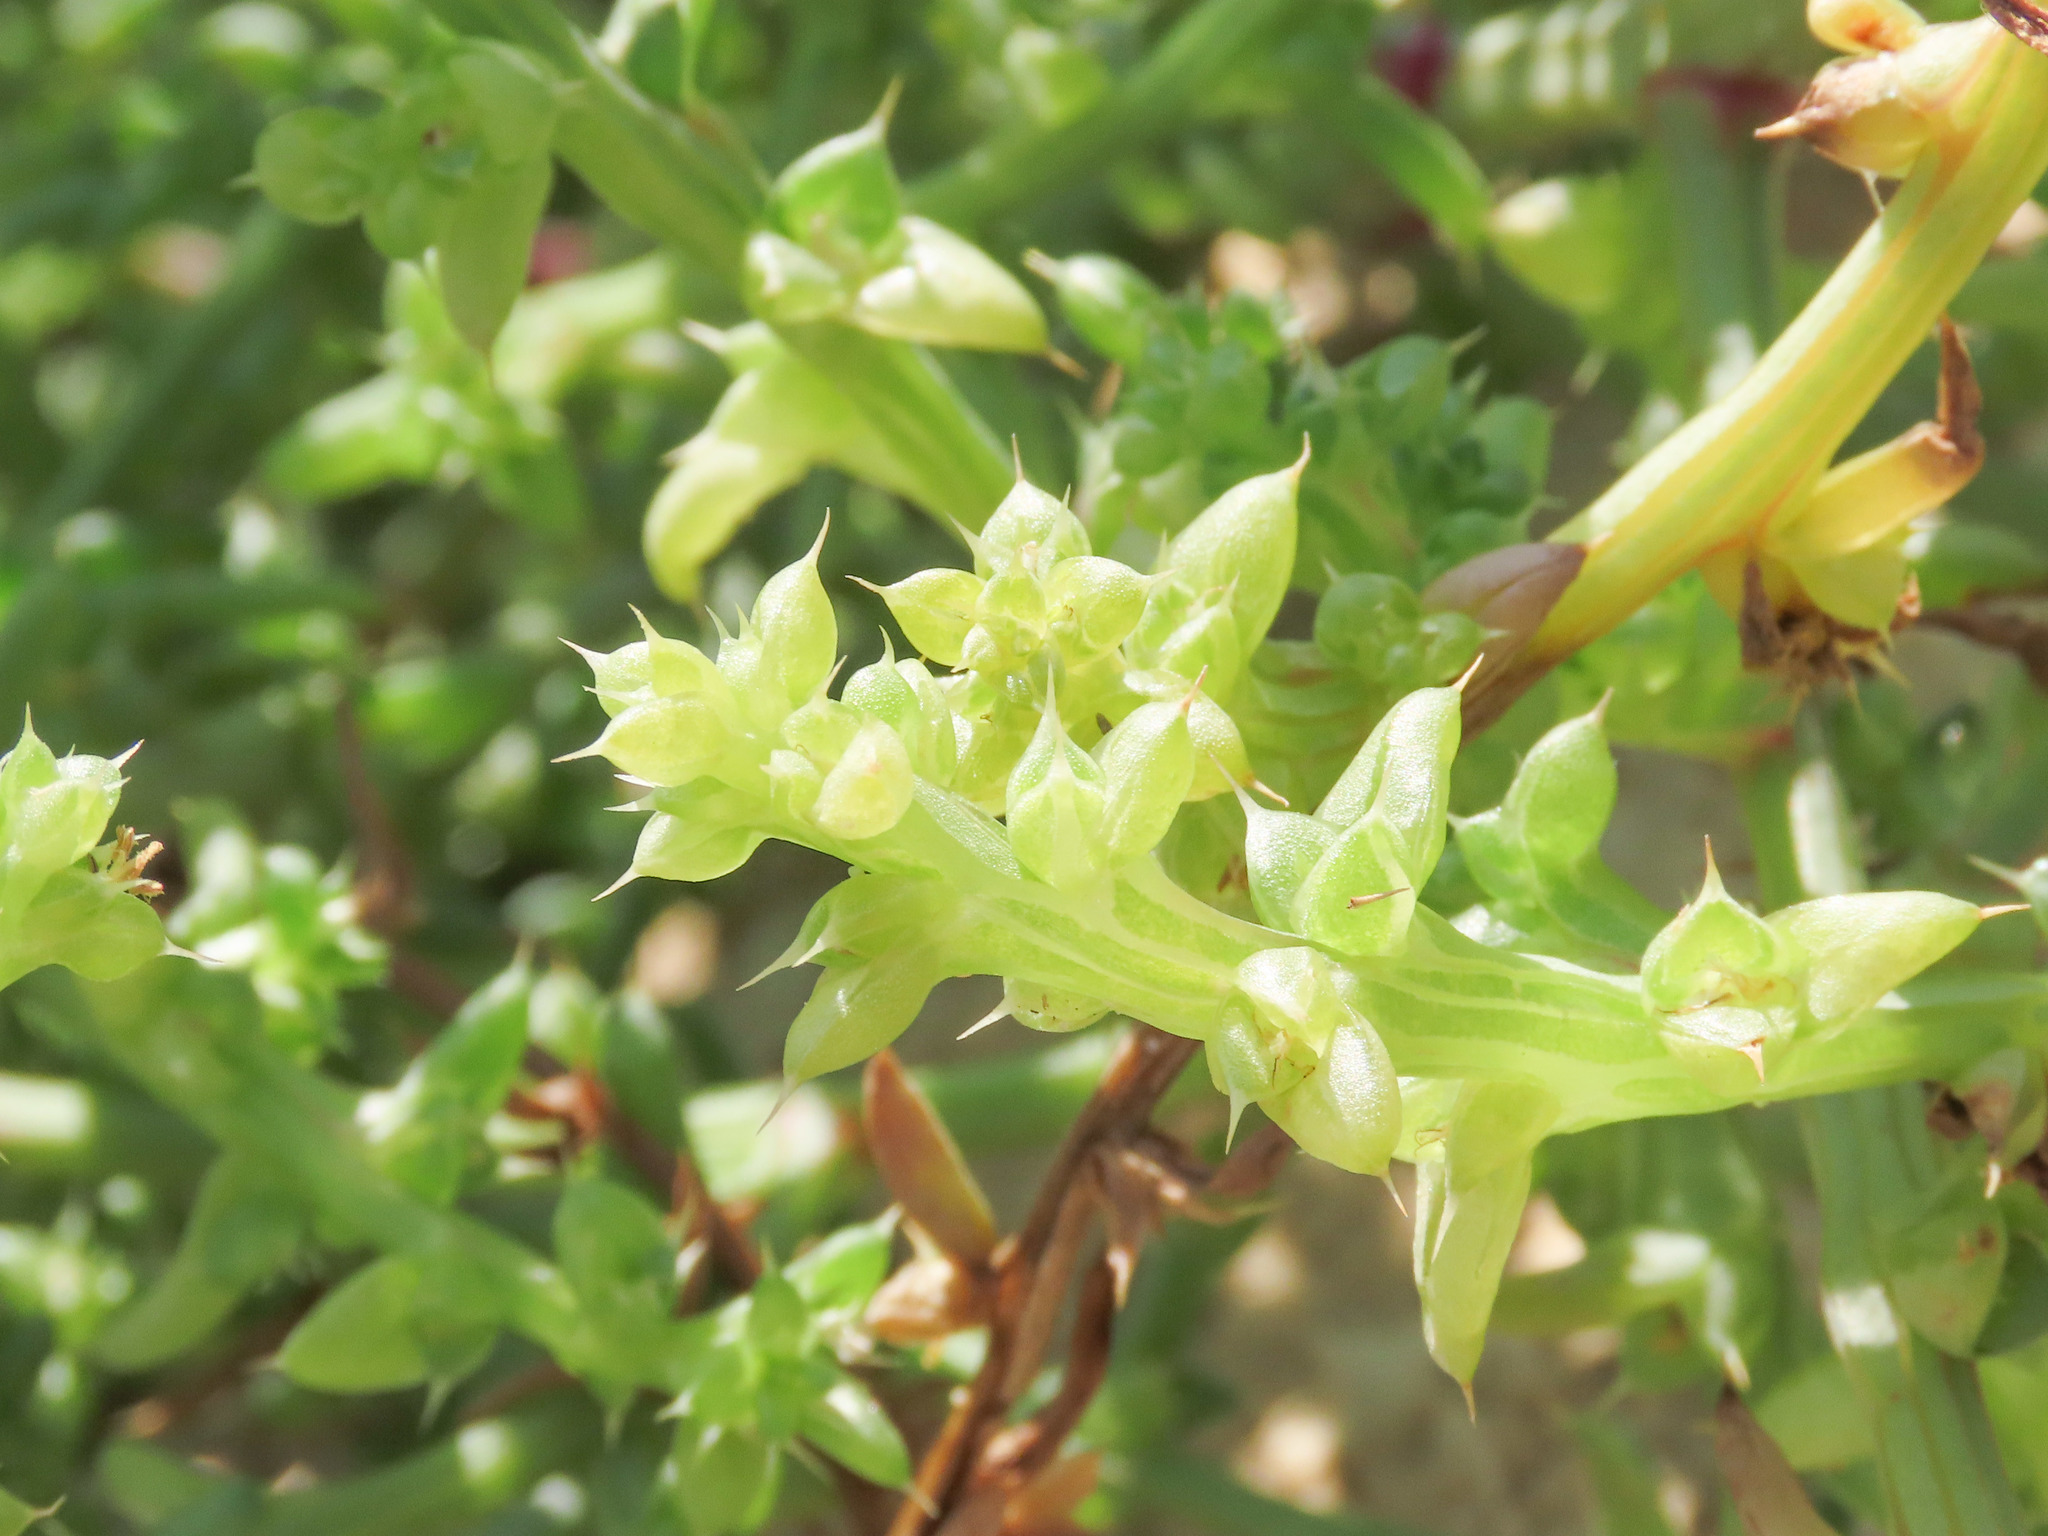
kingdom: Plantae
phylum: Tracheophyta
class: Magnoliopsida
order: Caryophyllales
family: Amaranthaceae
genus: Salsola
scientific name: Salsola squarrosa
